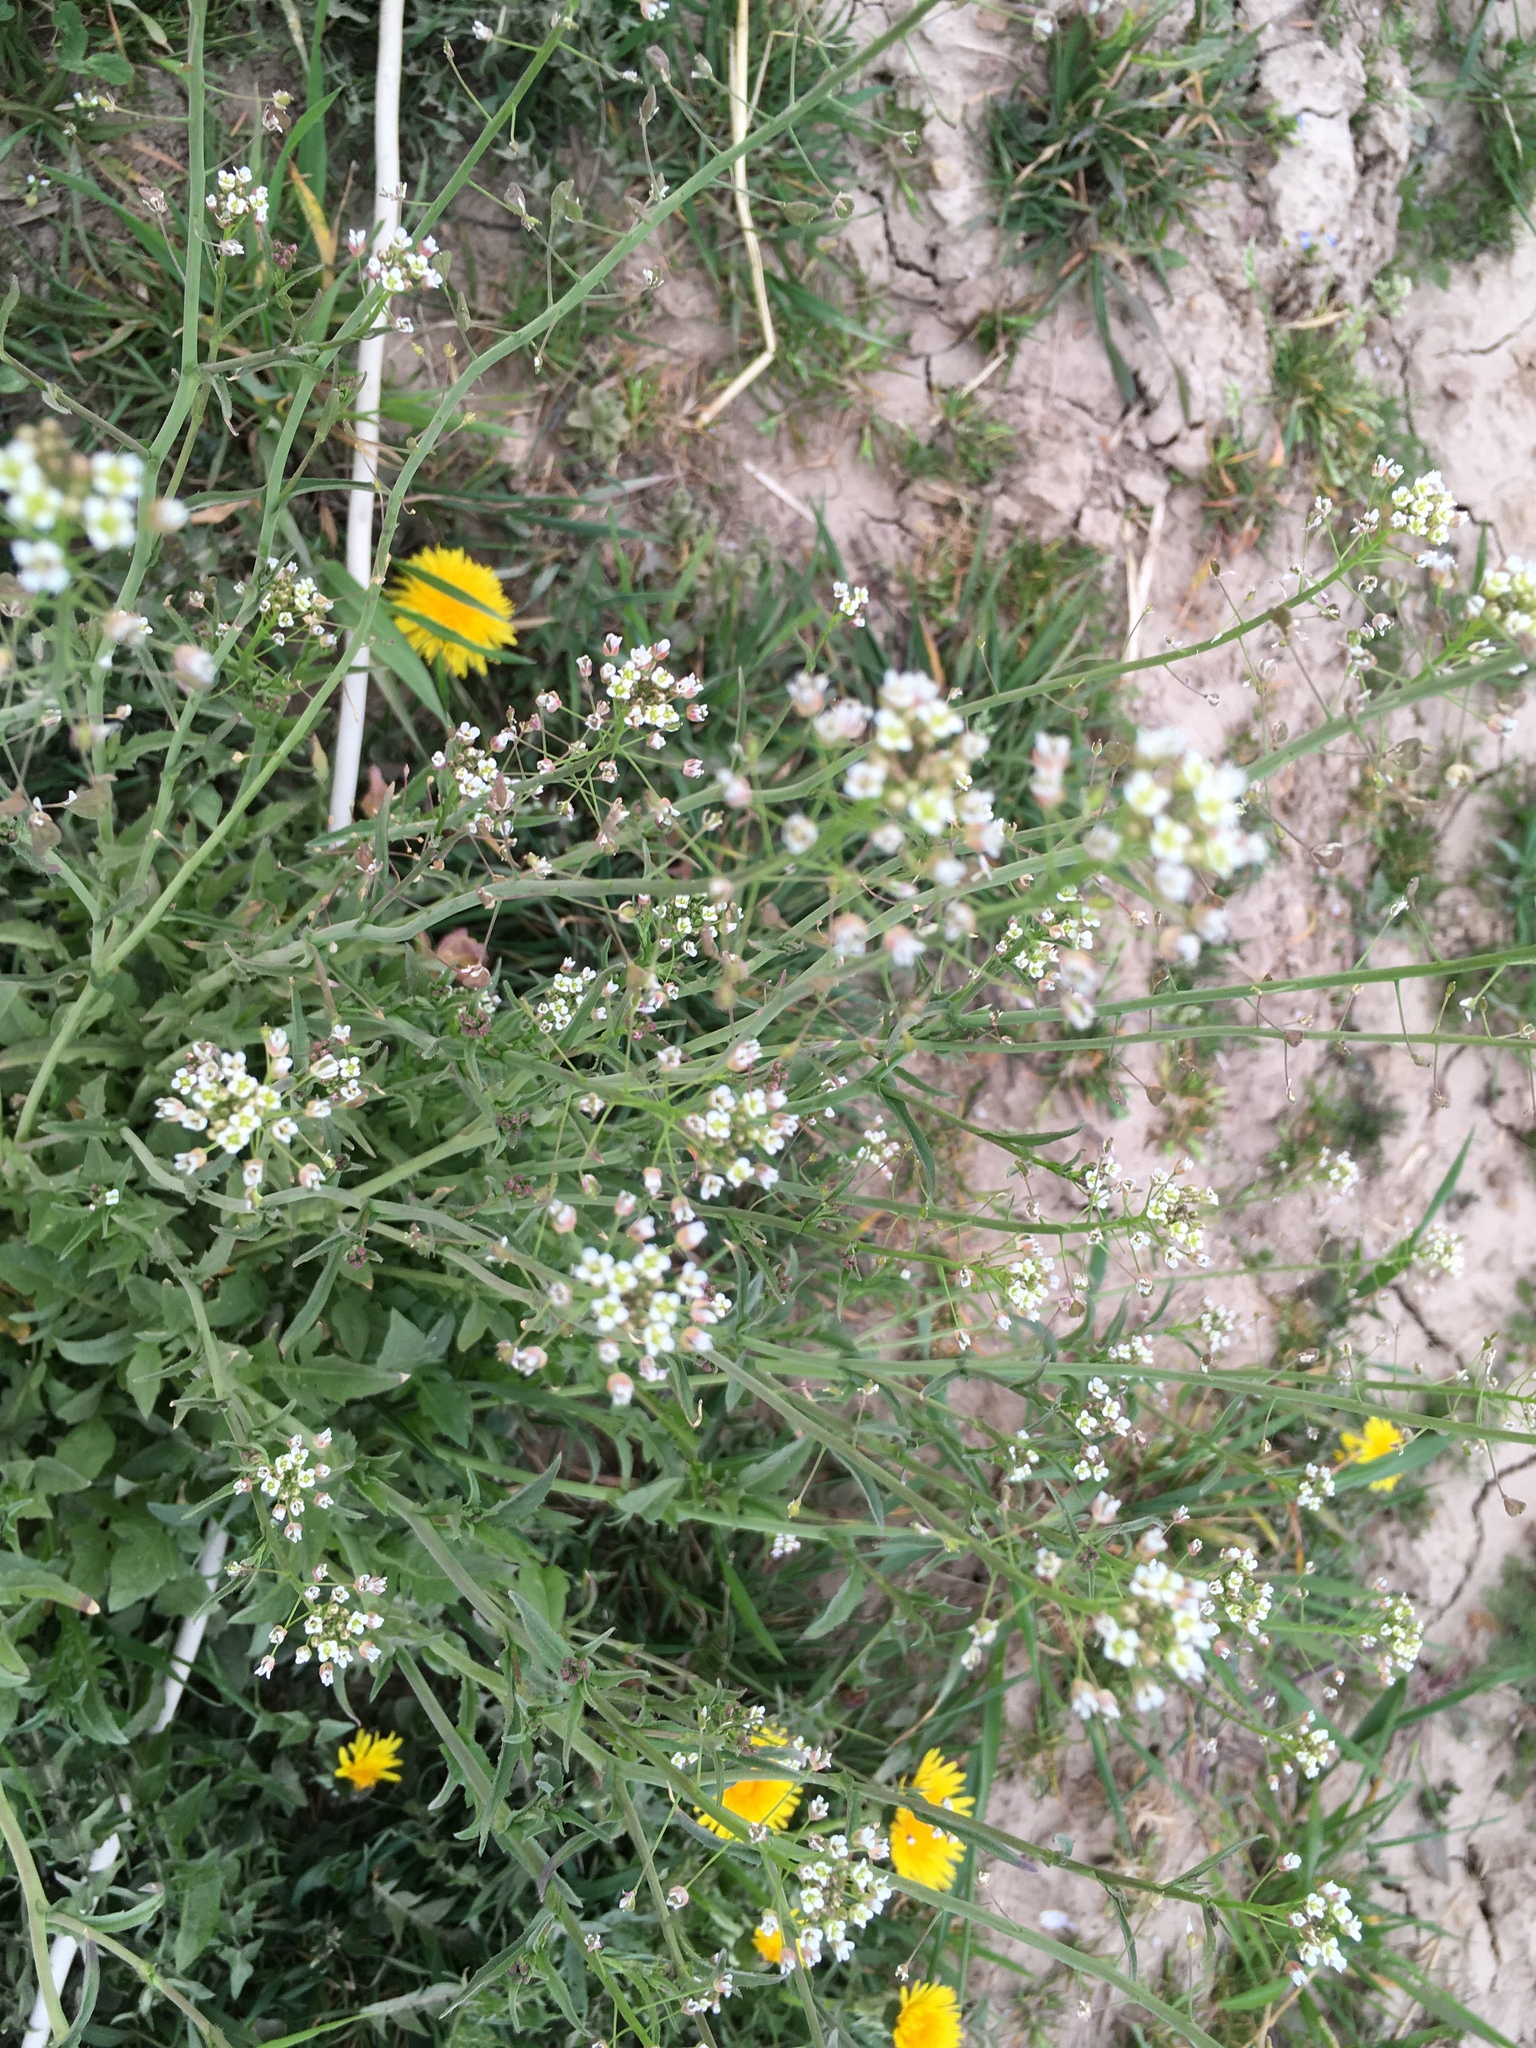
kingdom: Plantae
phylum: Tracheophyta
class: Magnoliopsida
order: Brassicales
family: Brassicaceae
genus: Capsella
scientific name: Capsella bursa-pastoris
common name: Shepherd's purse
